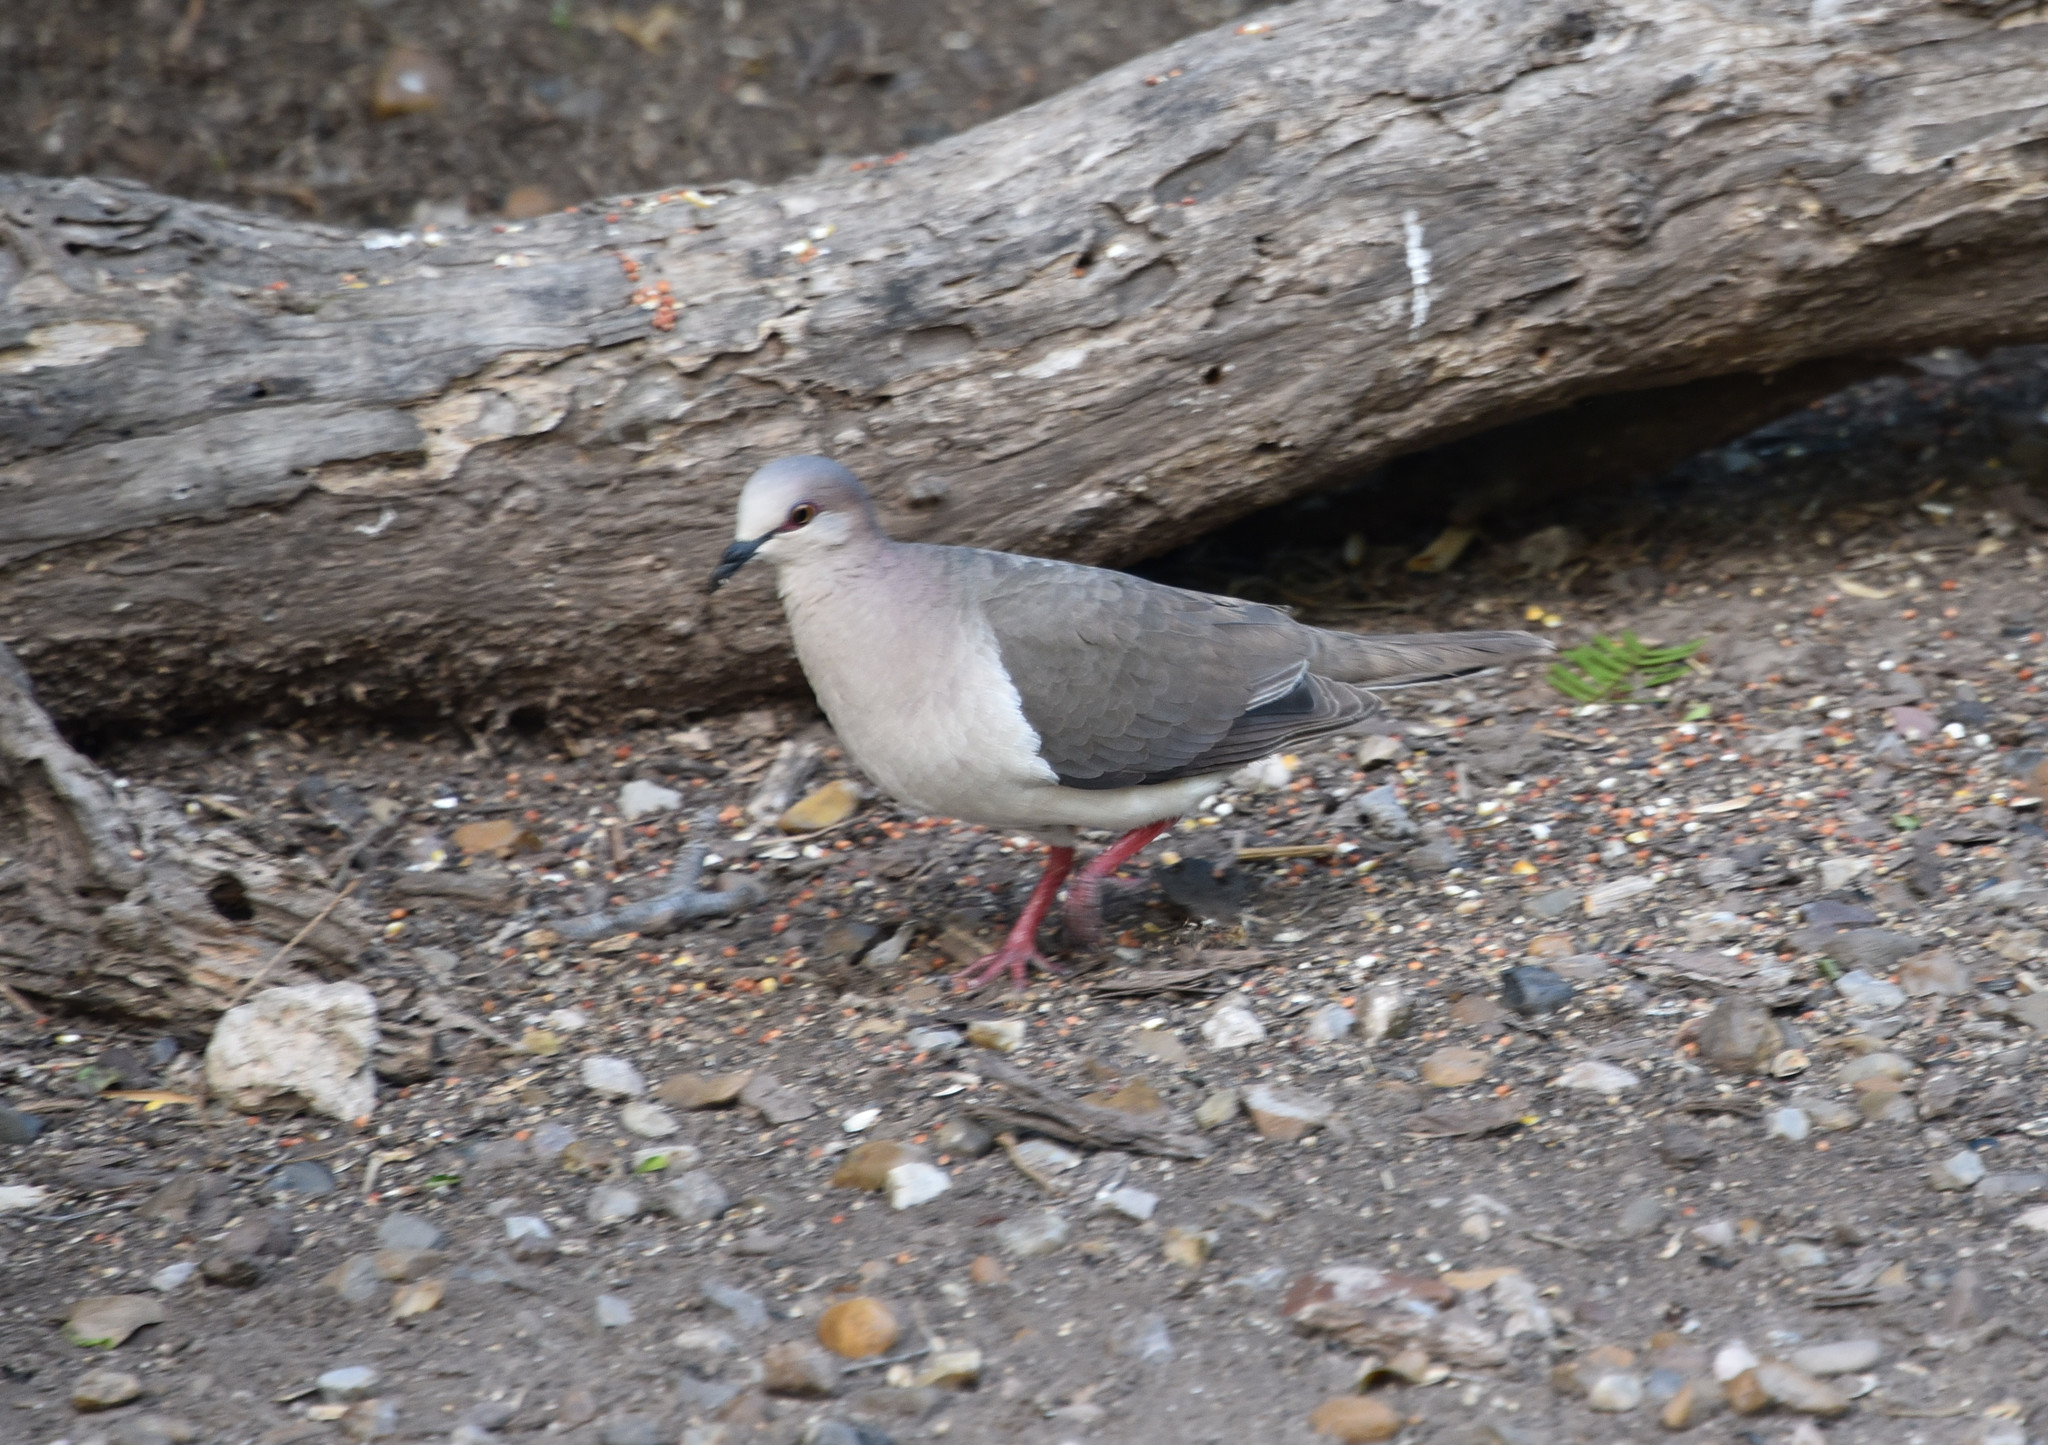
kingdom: Animalia
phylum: Chordata
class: Aves
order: Columbiformes
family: Columbidae
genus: Leptotila
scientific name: Leptotila verreauxi
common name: White-tipped dove
